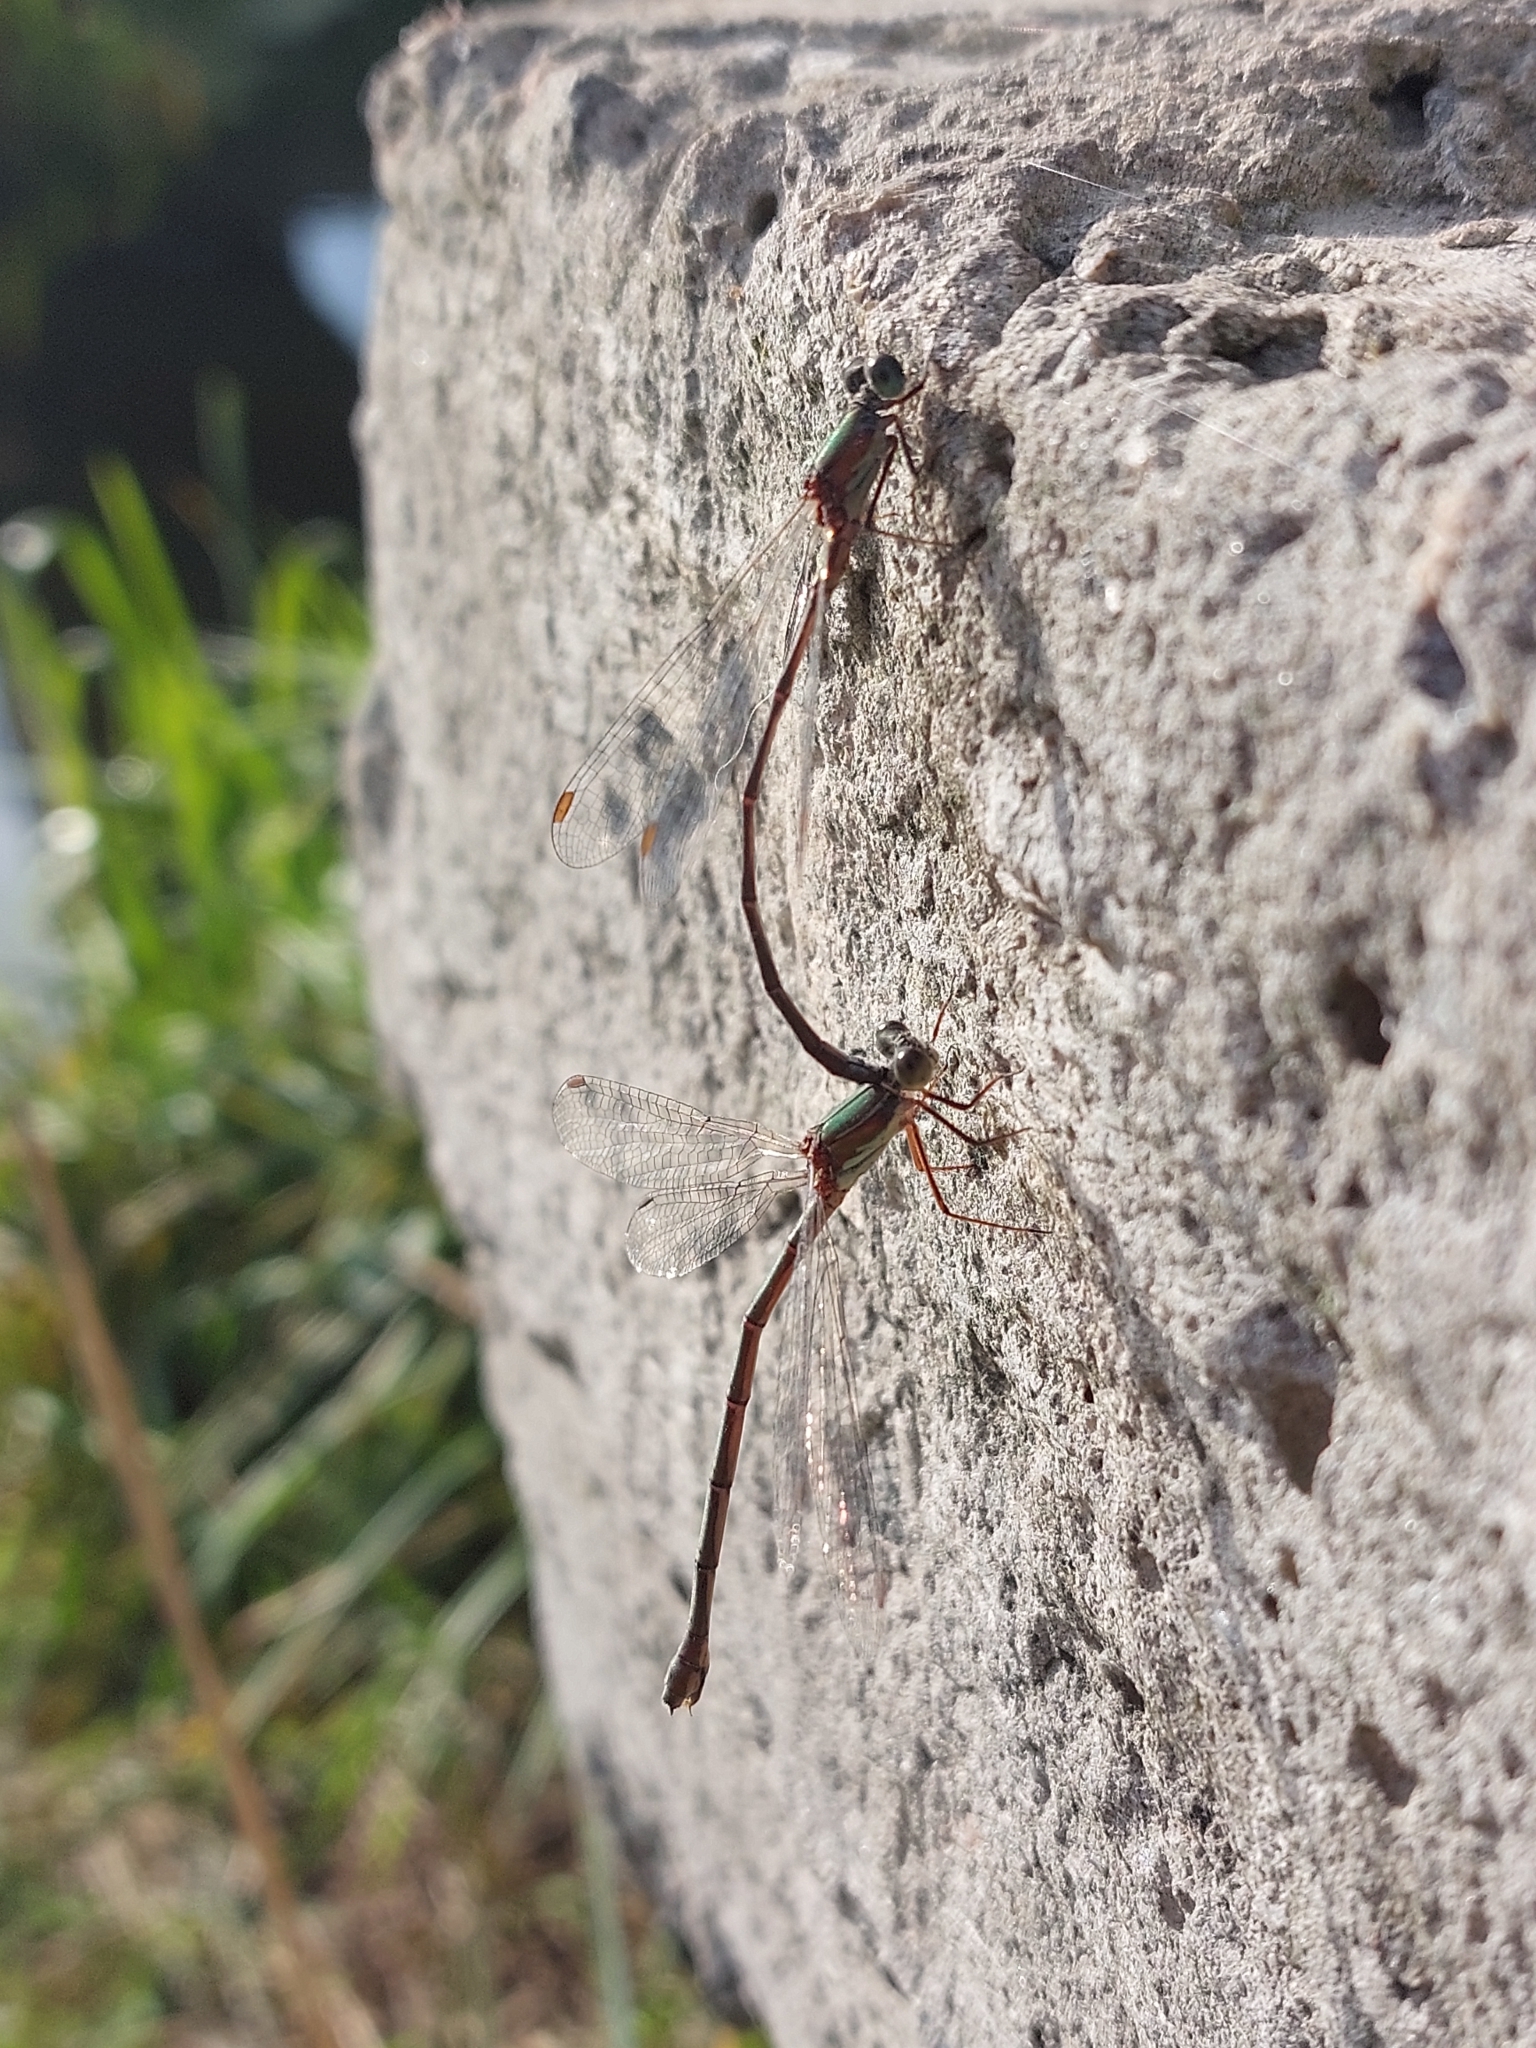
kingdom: Animalia
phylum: Arthropoda
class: Insecta
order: Odonata
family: Lestidae
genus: Chalcolestes
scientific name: Chalcolestes parvidens
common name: Eastern willow spreadwing
